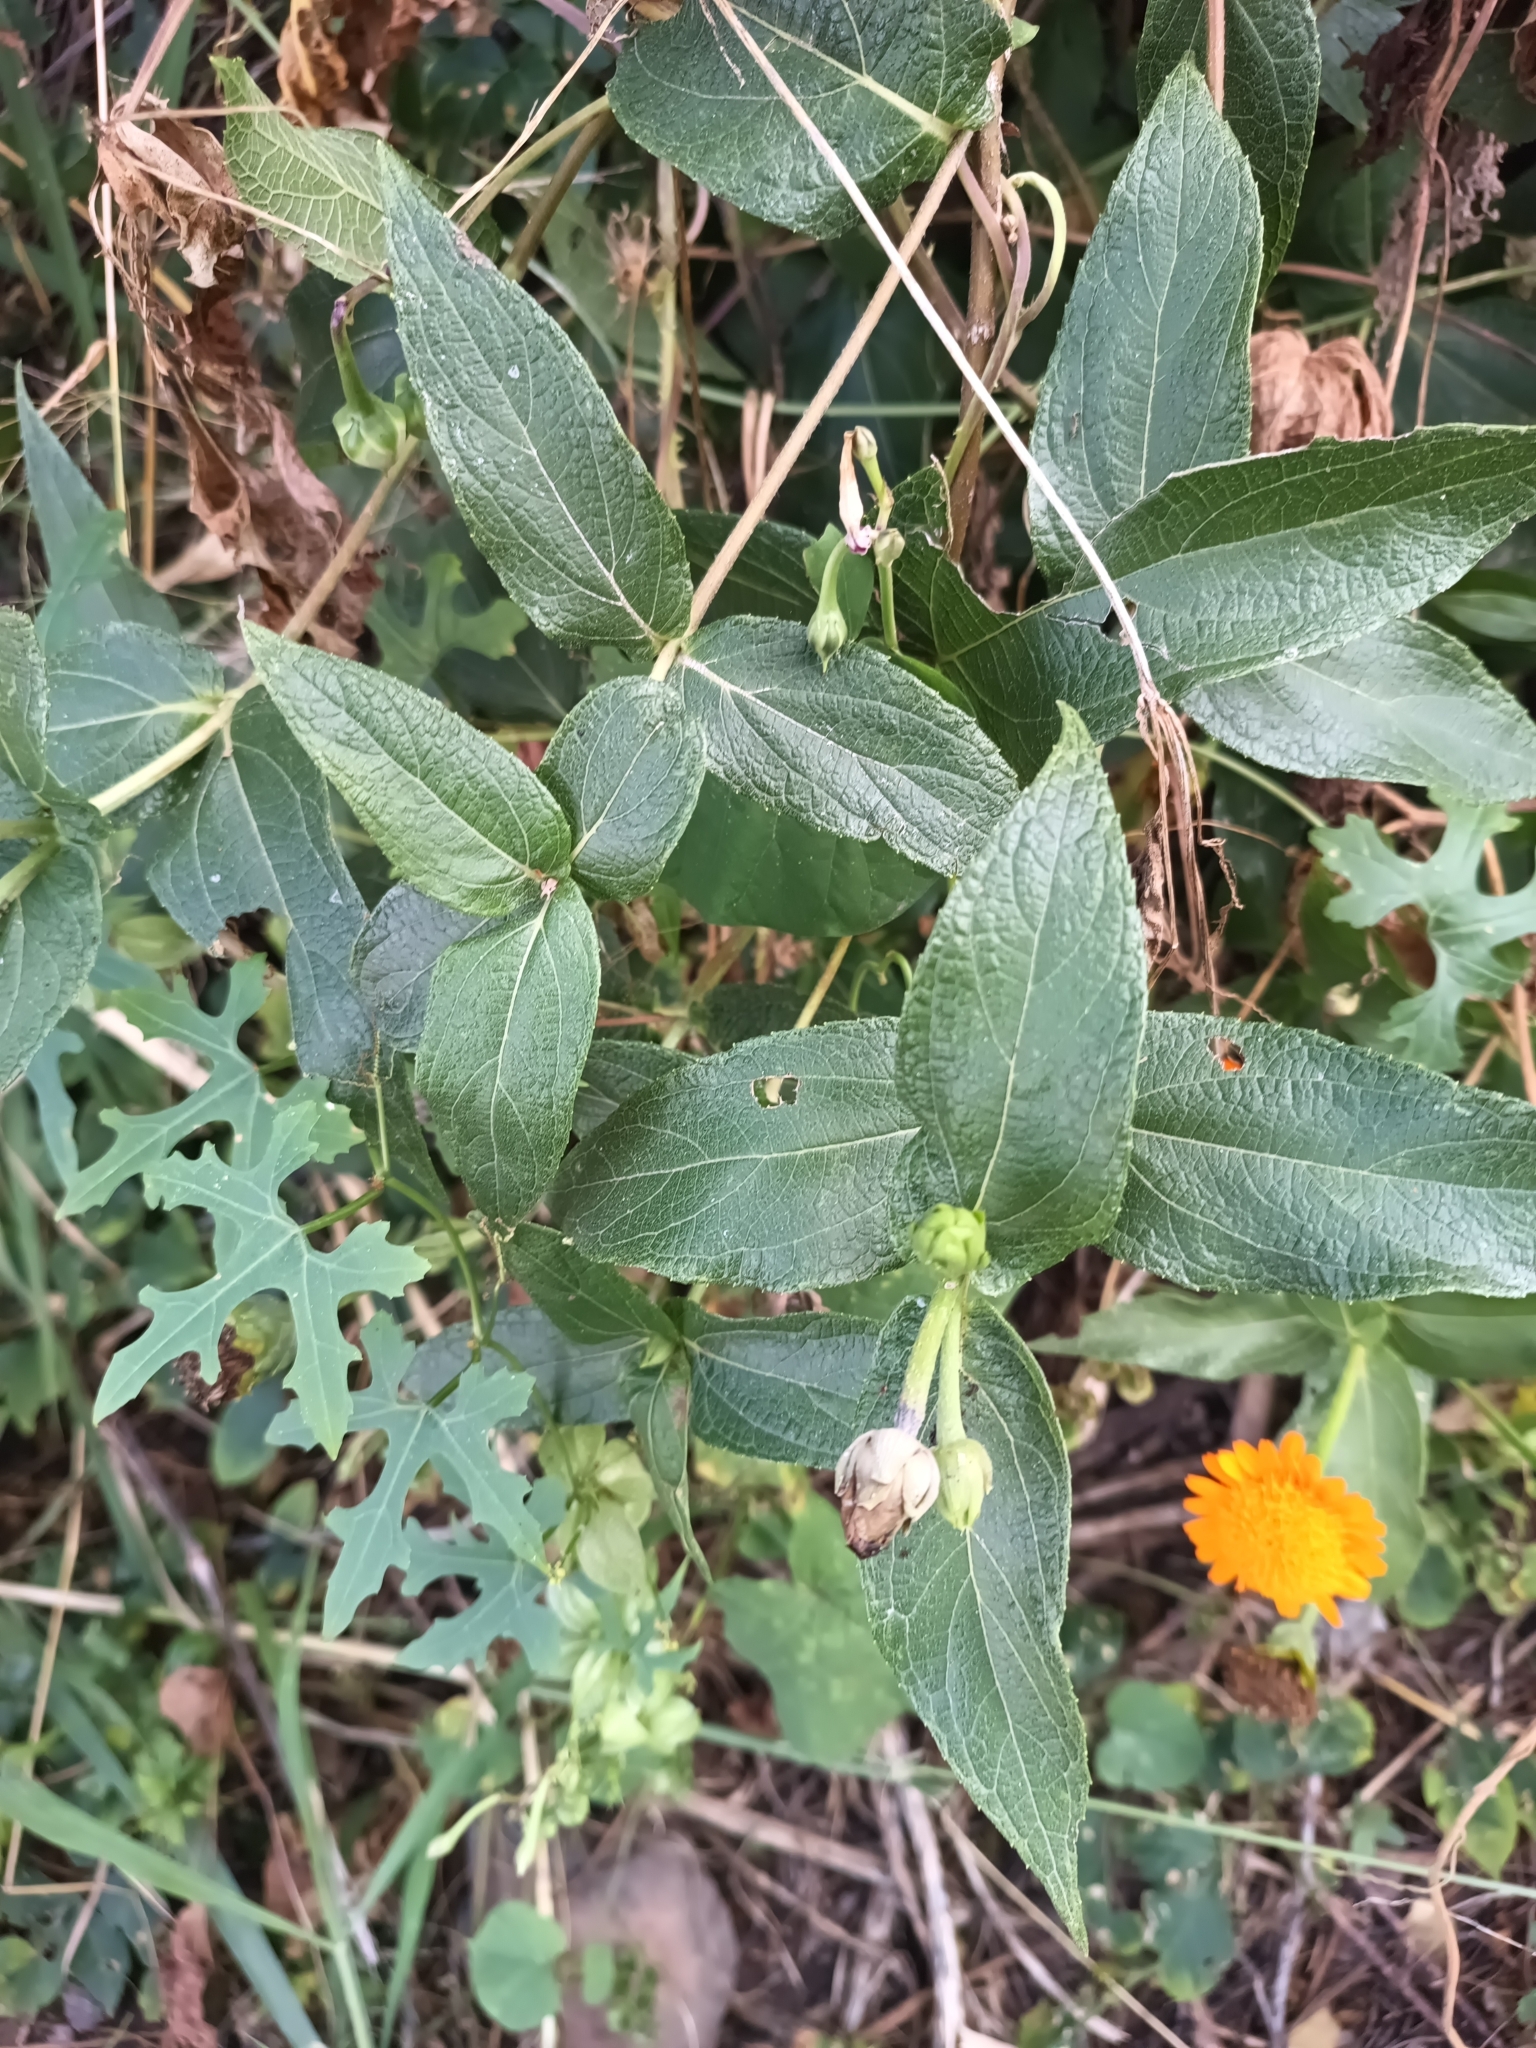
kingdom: Plantae
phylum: Tracheophyta
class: Magnoliopsida
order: Asterales
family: Asteraceae
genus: Lasianthaea
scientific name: Lasianthaea macrocephala
